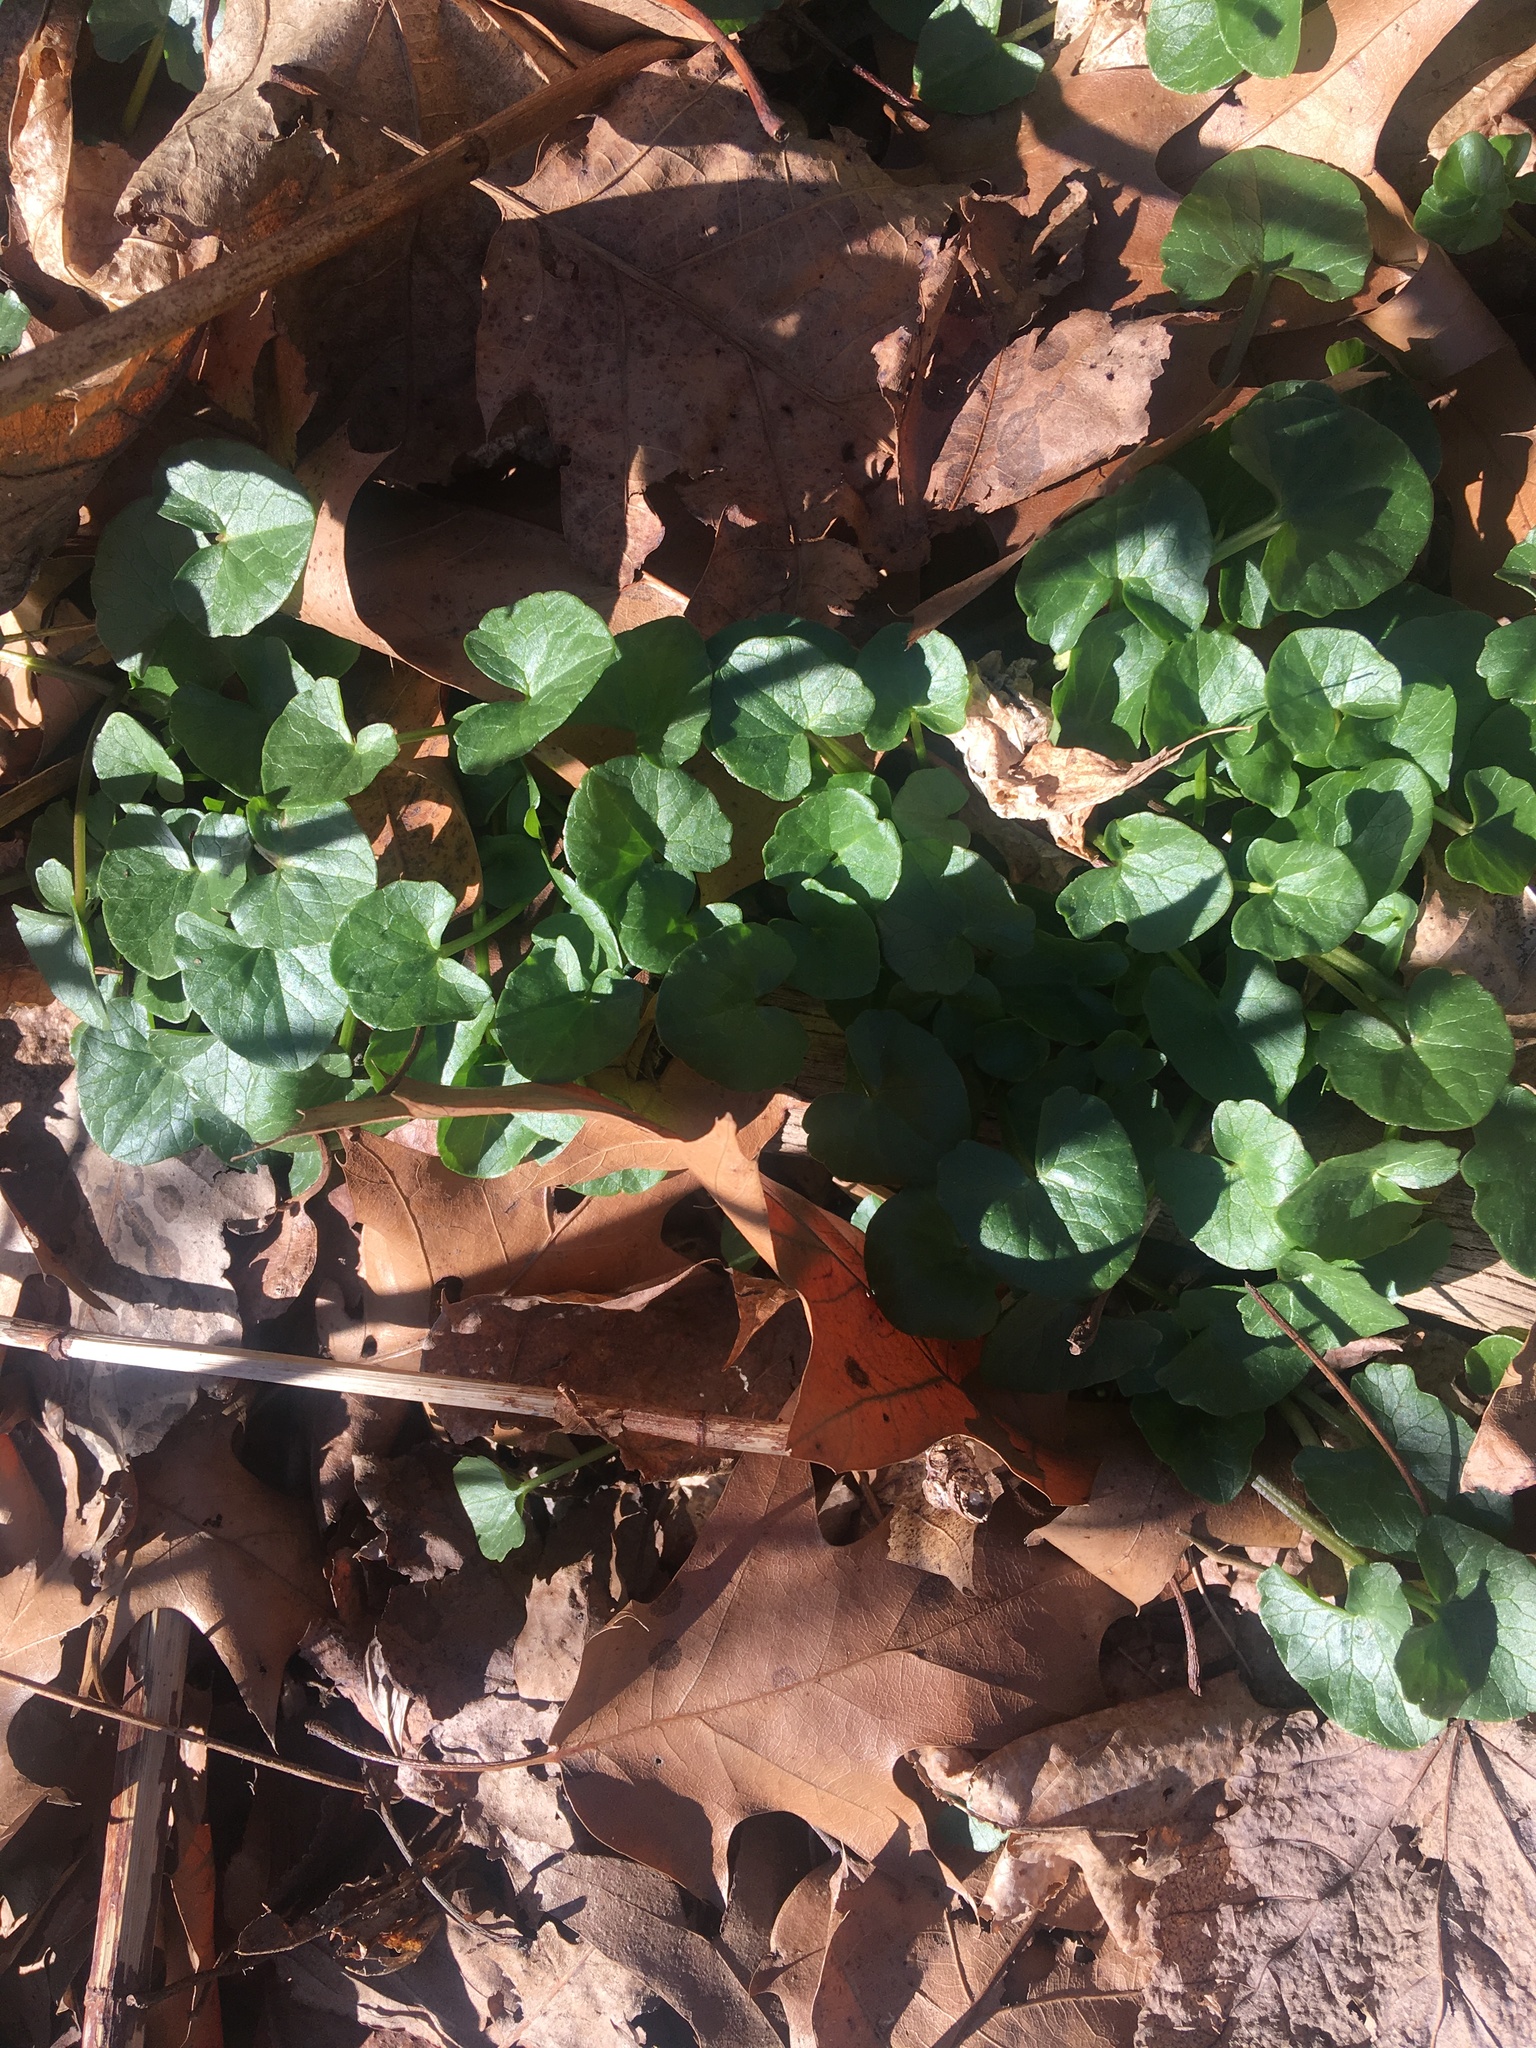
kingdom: Plantae
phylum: Tracheophyta
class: Magnoliopsida
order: Ranunculales
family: Ranunculaceae
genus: Ficaria
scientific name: Ficaria verna
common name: Lesser celandine
